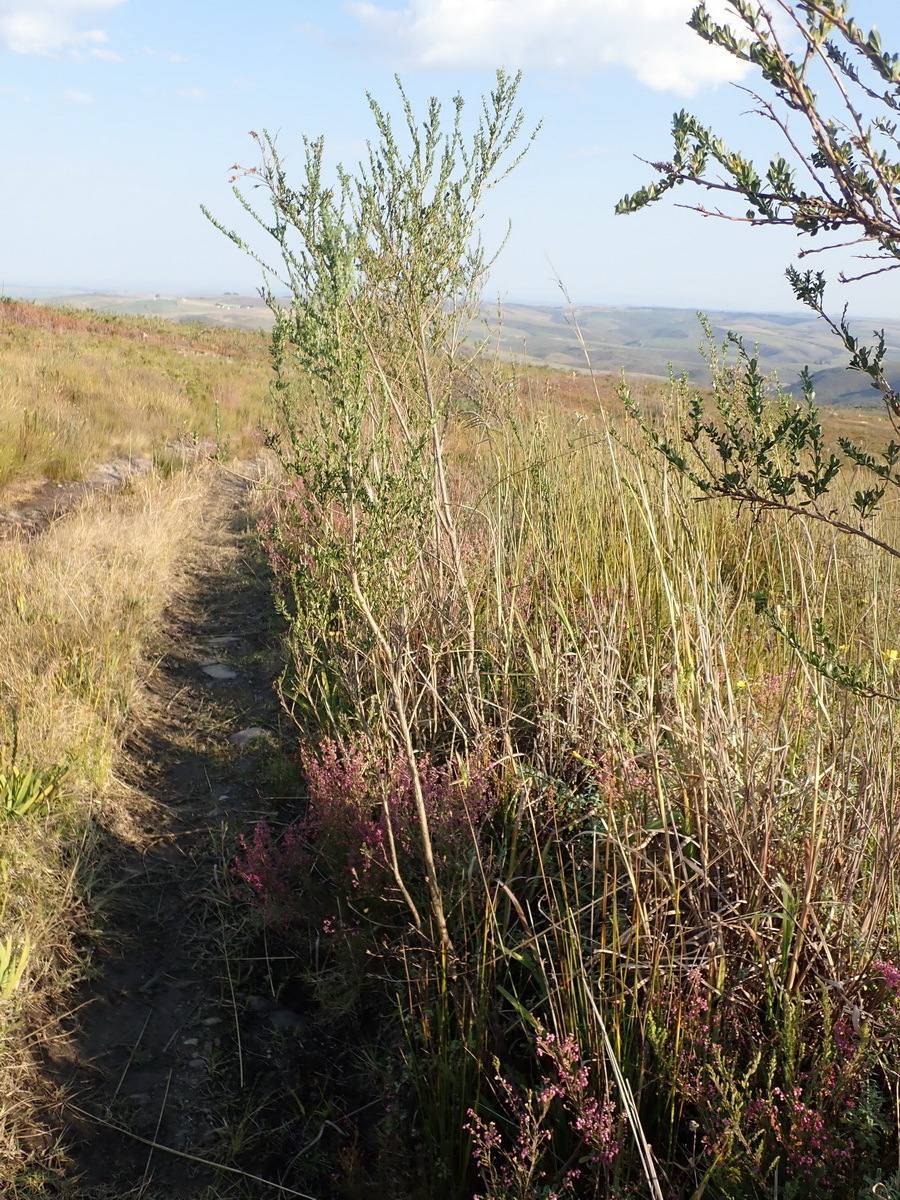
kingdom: Plantae
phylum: Tracheophyta
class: Magnoliopsida
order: Fabales
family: Fabaceae
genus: Psoralea
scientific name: Psoralea spicata
